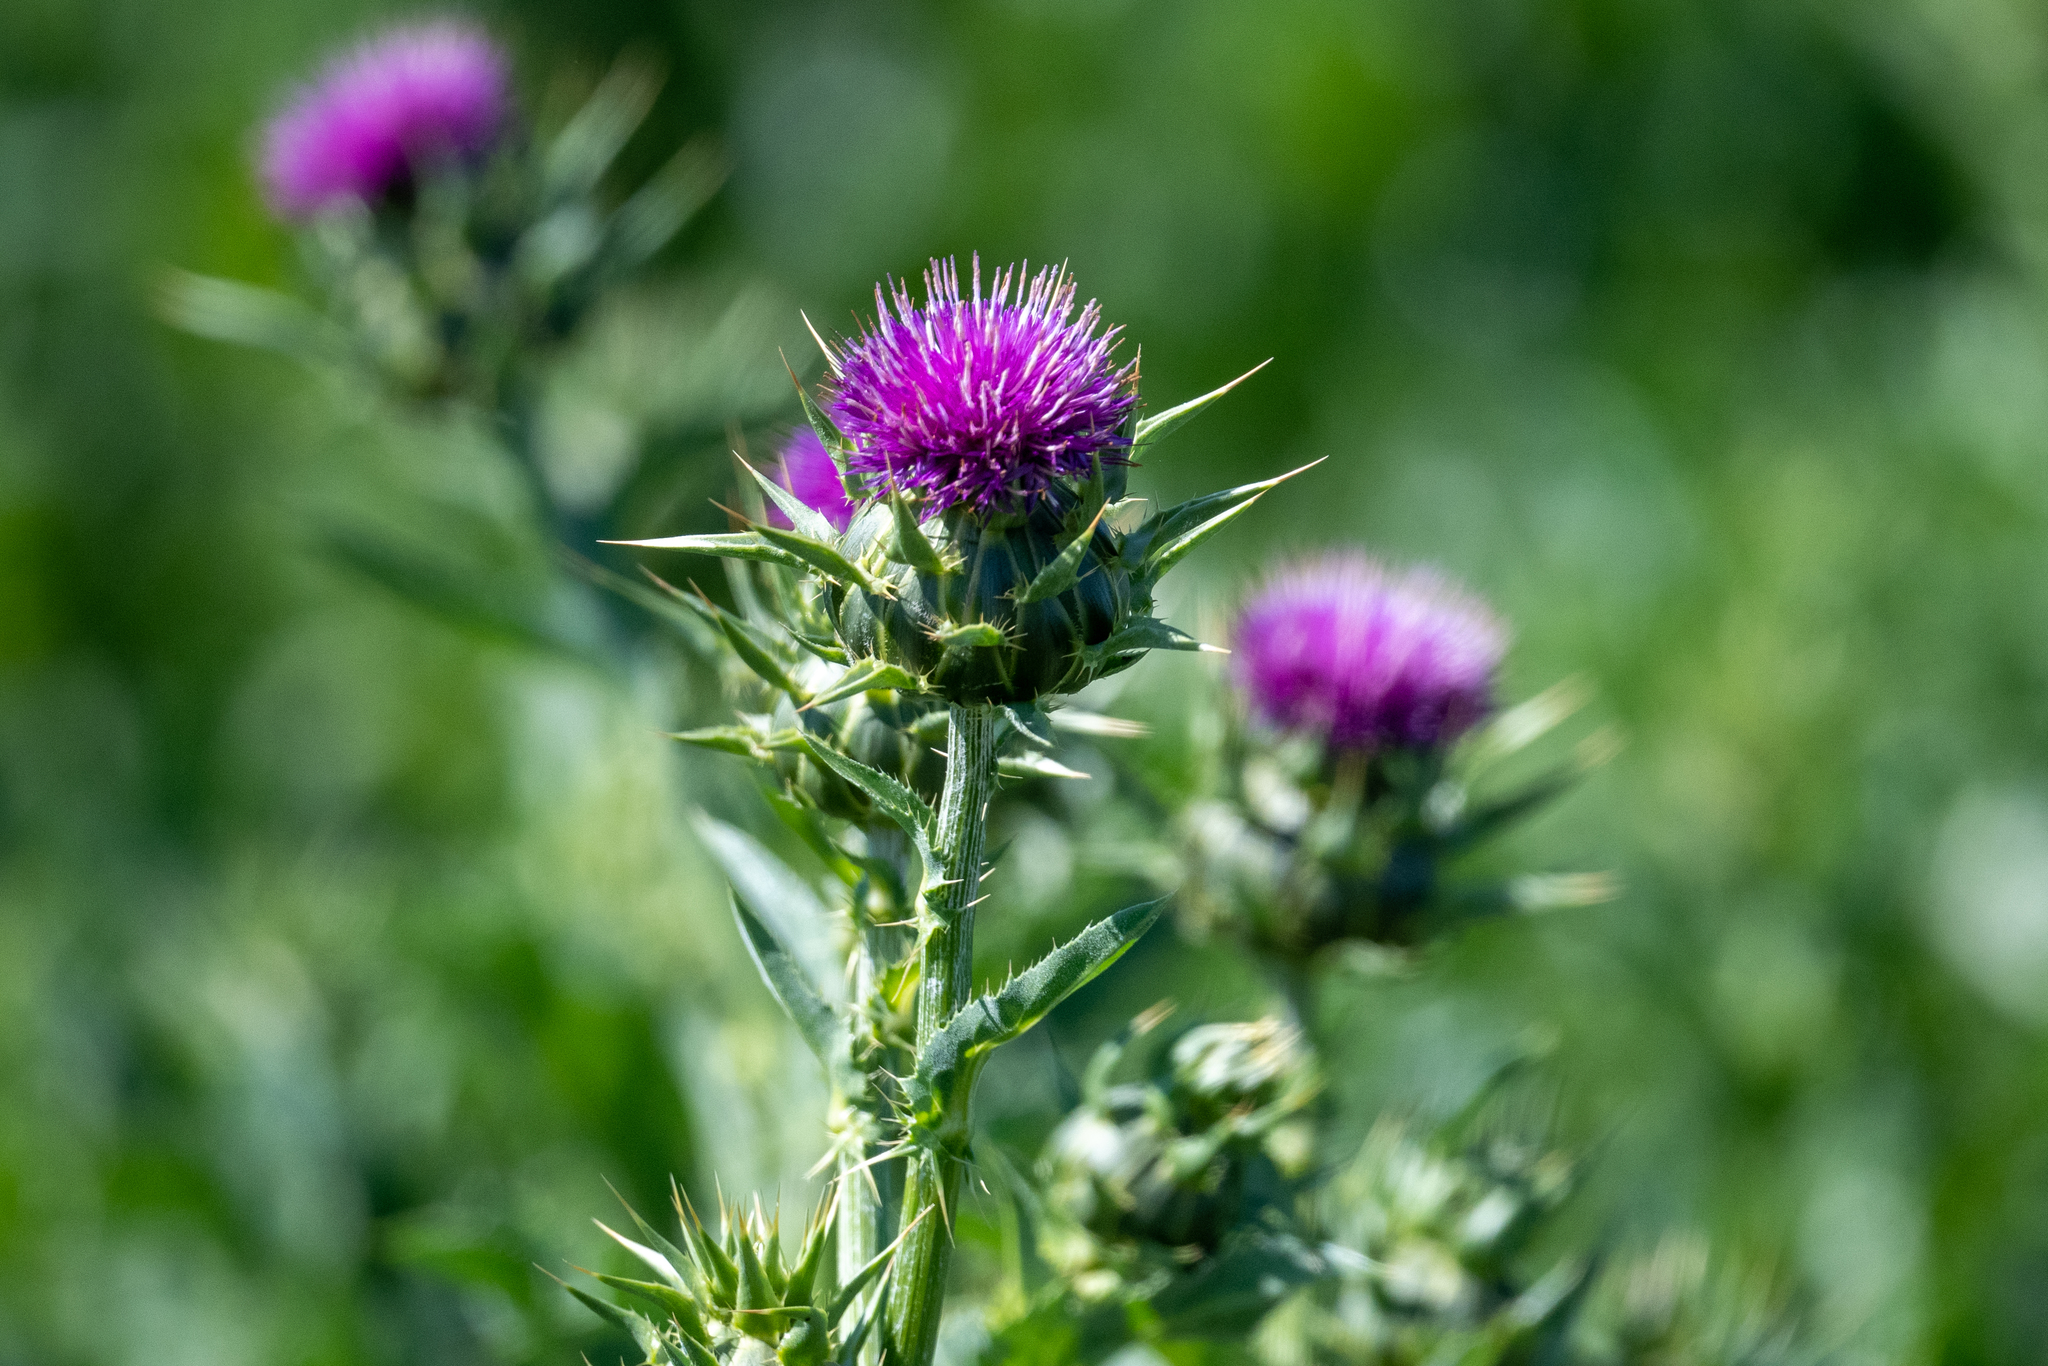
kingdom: Plantae
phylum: Tracheophyta
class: Magnoliopsida
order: Asterales
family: Asteraceae
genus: Silybum
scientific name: Silybum marianum
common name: Milk thistle
